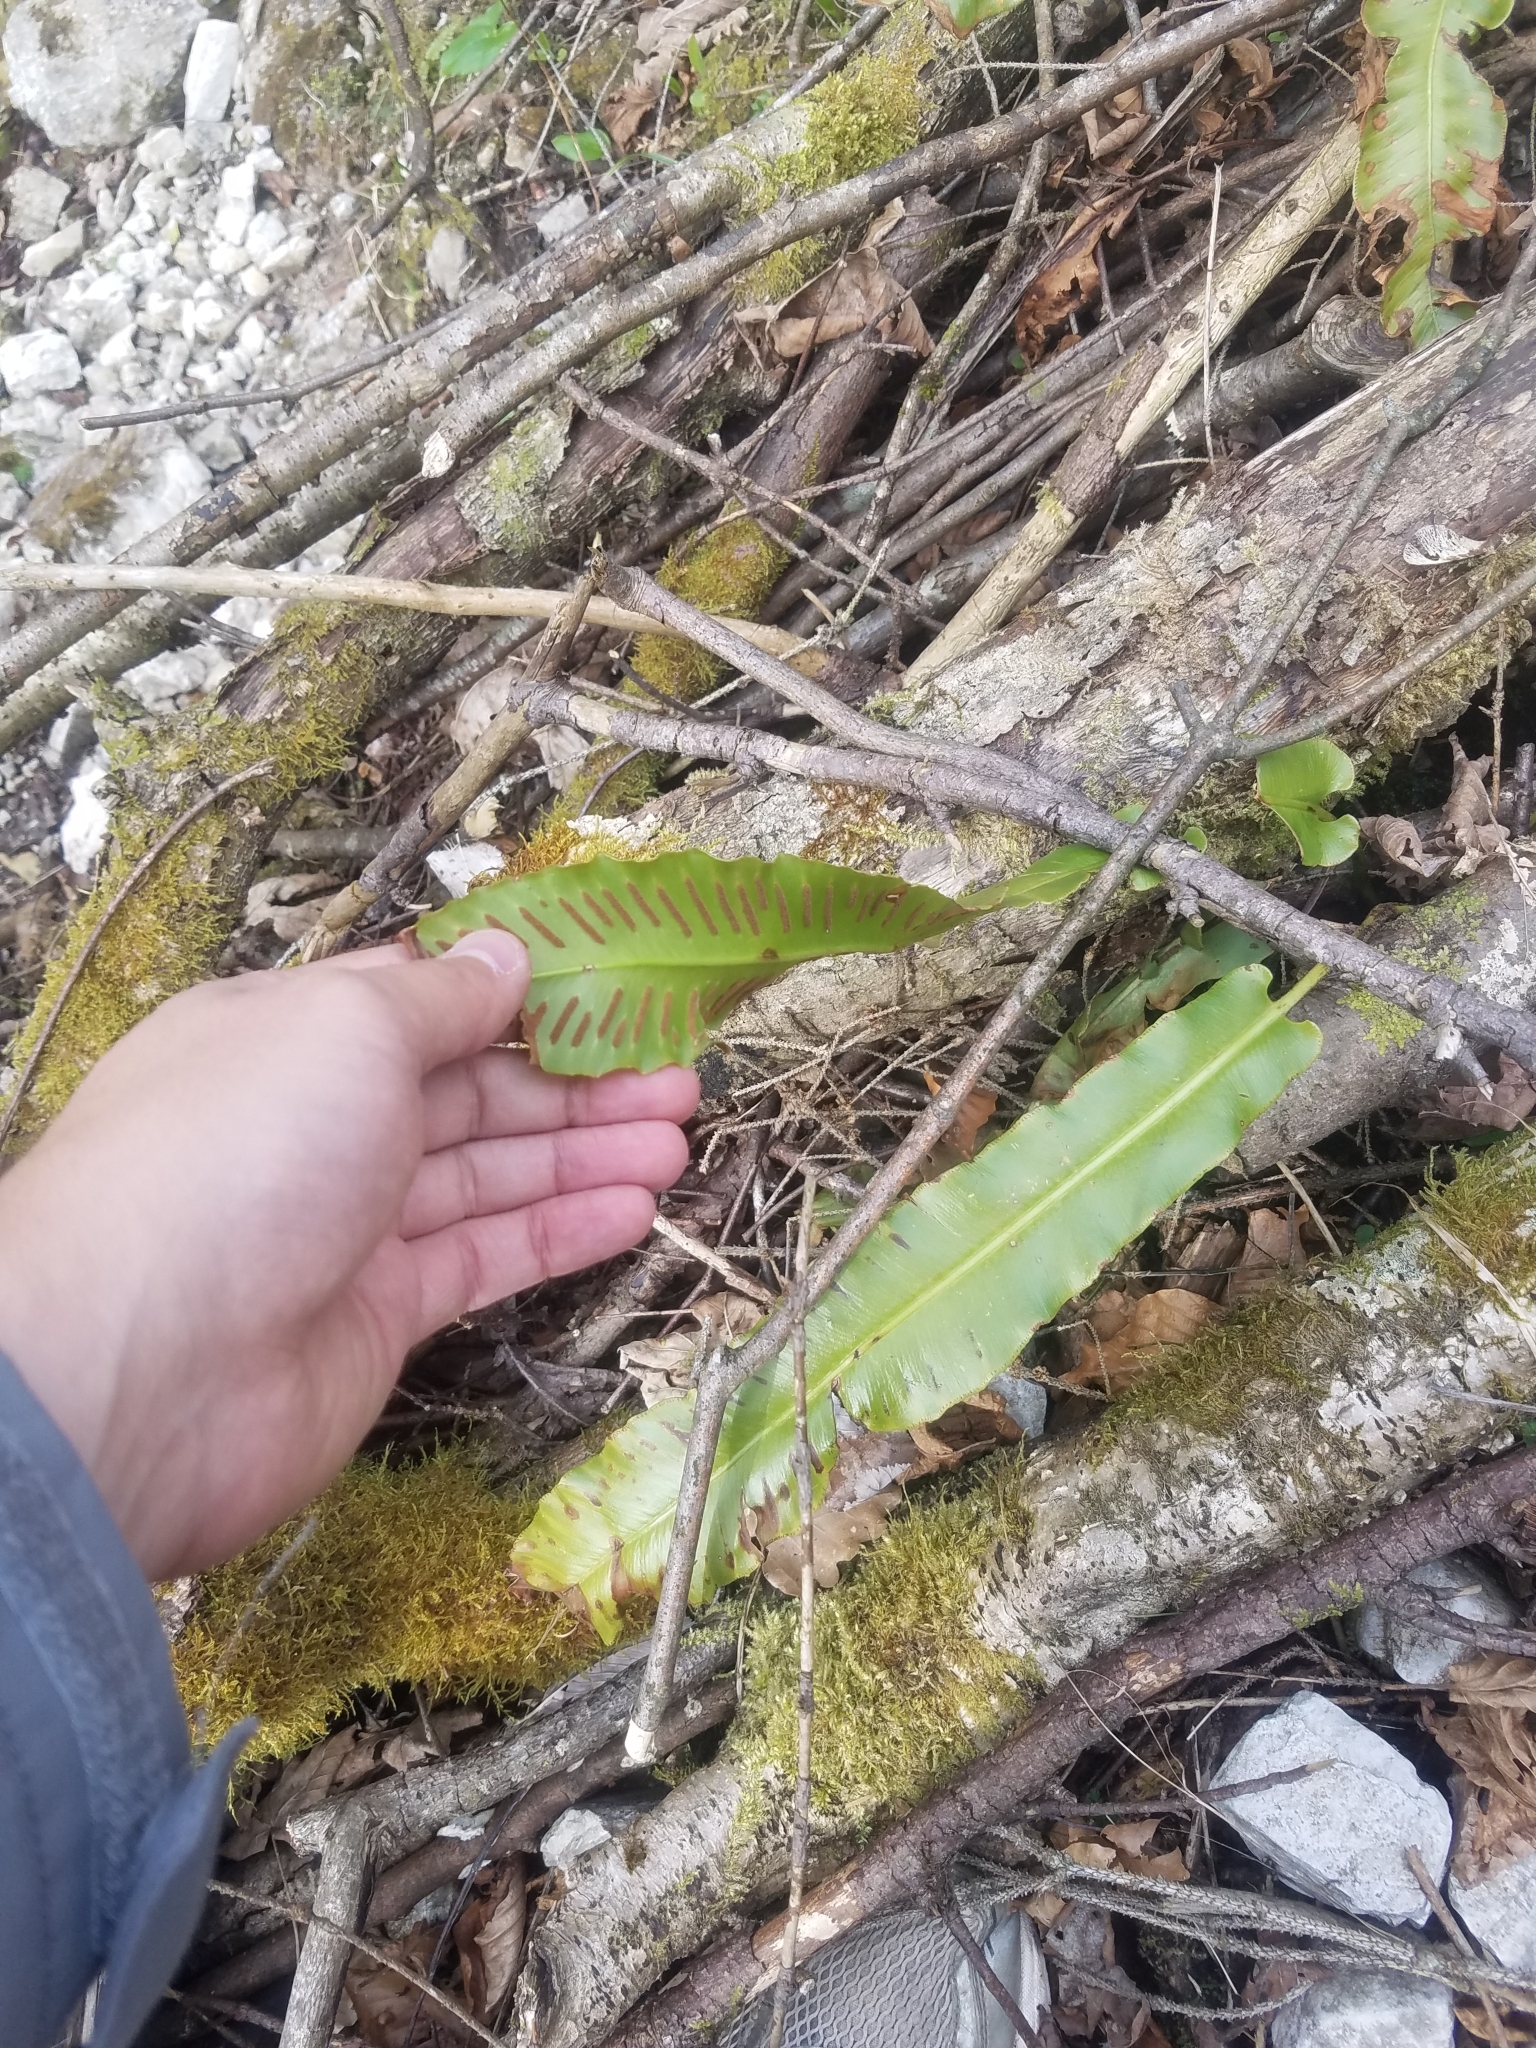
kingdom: Plantae
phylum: Tracheophyta
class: Polypodiopsida
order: Polypodiales
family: Aspleniaceae
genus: Asplenium
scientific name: Asplenium scolopendrium
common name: Hart's-tongue fern
